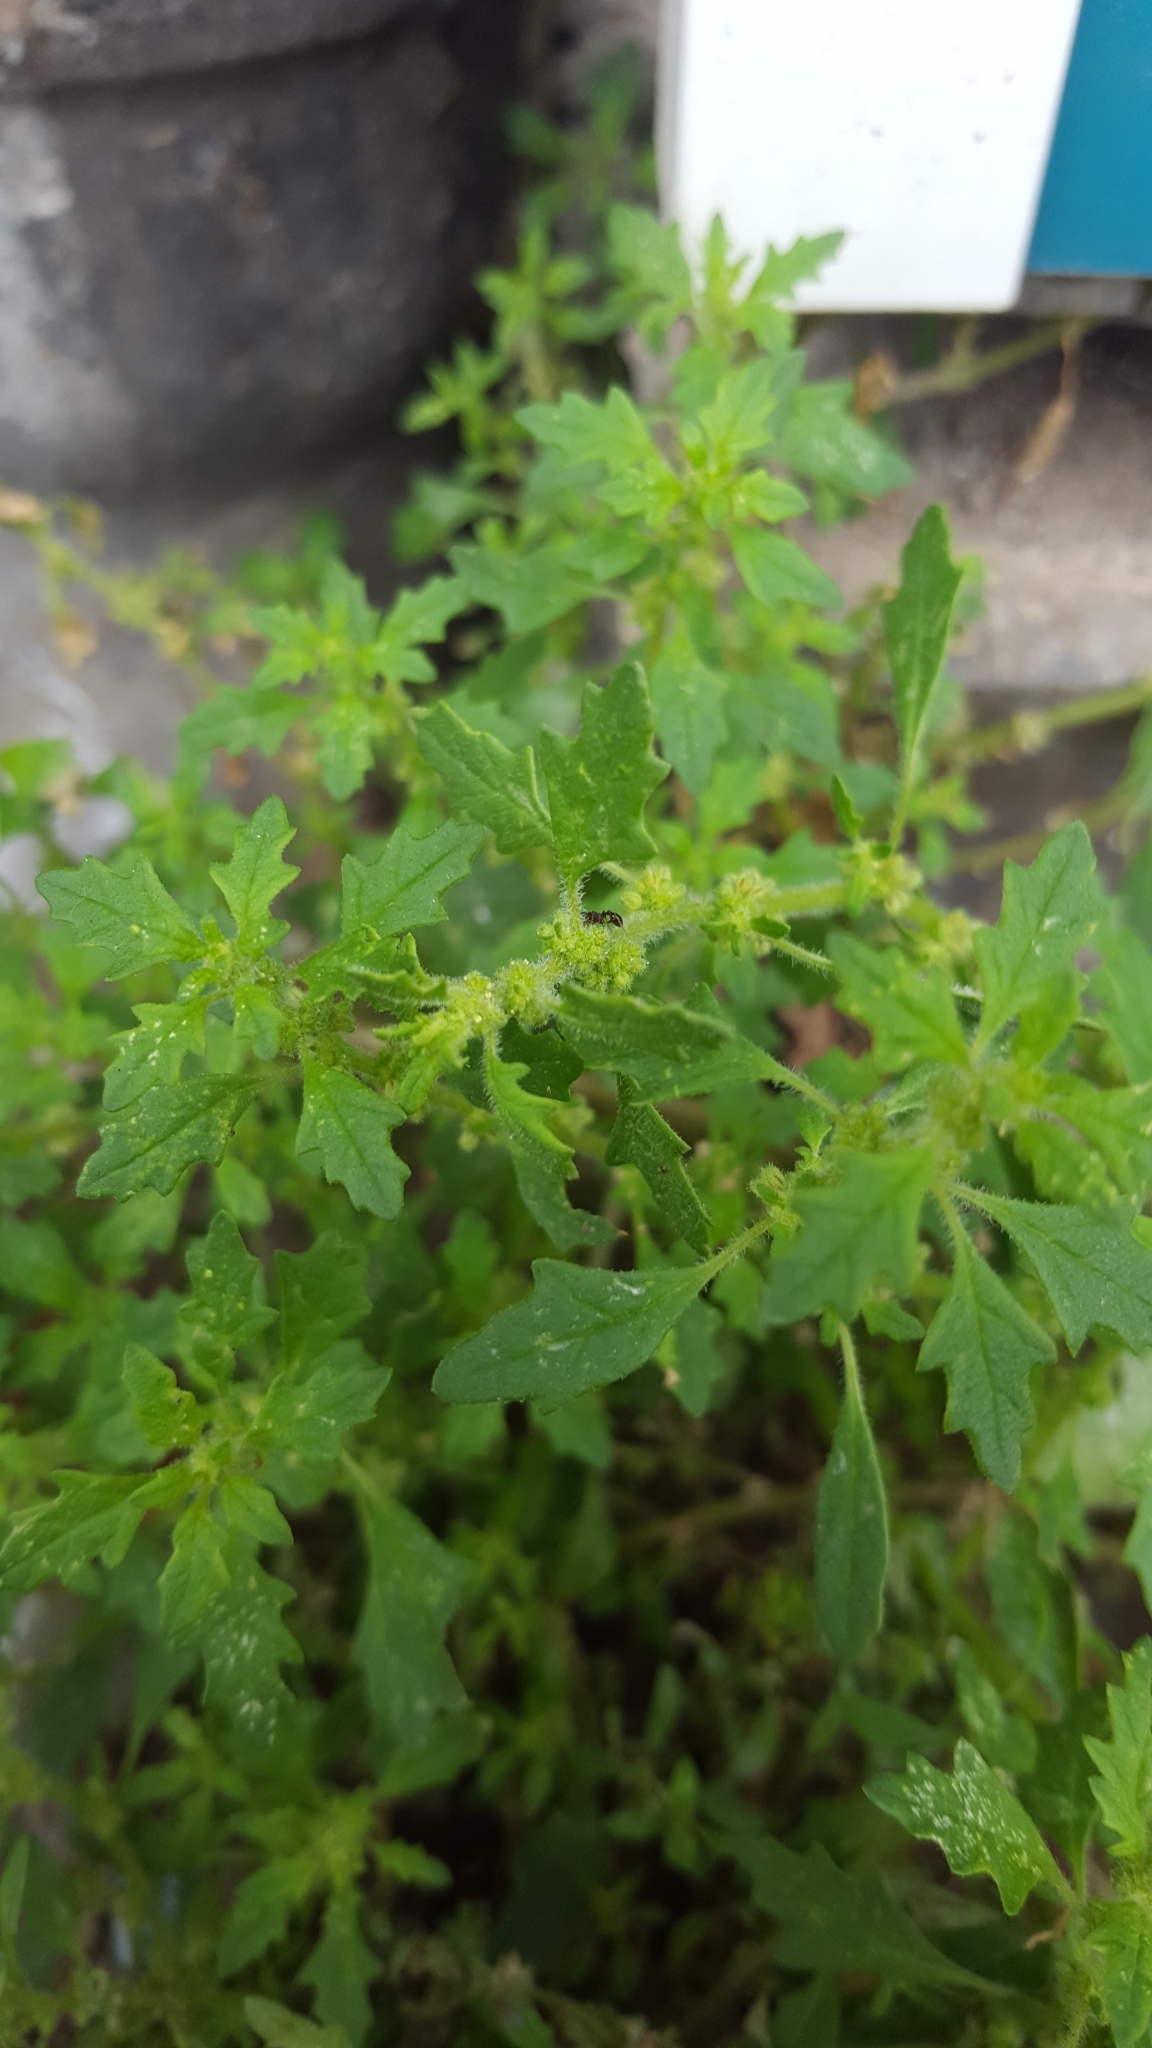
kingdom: Plantae
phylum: Tracheophyta
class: Magnoliopsida
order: Caryophyllales
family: Amaranthaceae
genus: Dysphania
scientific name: Dysphania pumilio
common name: Clammy goosefoot
